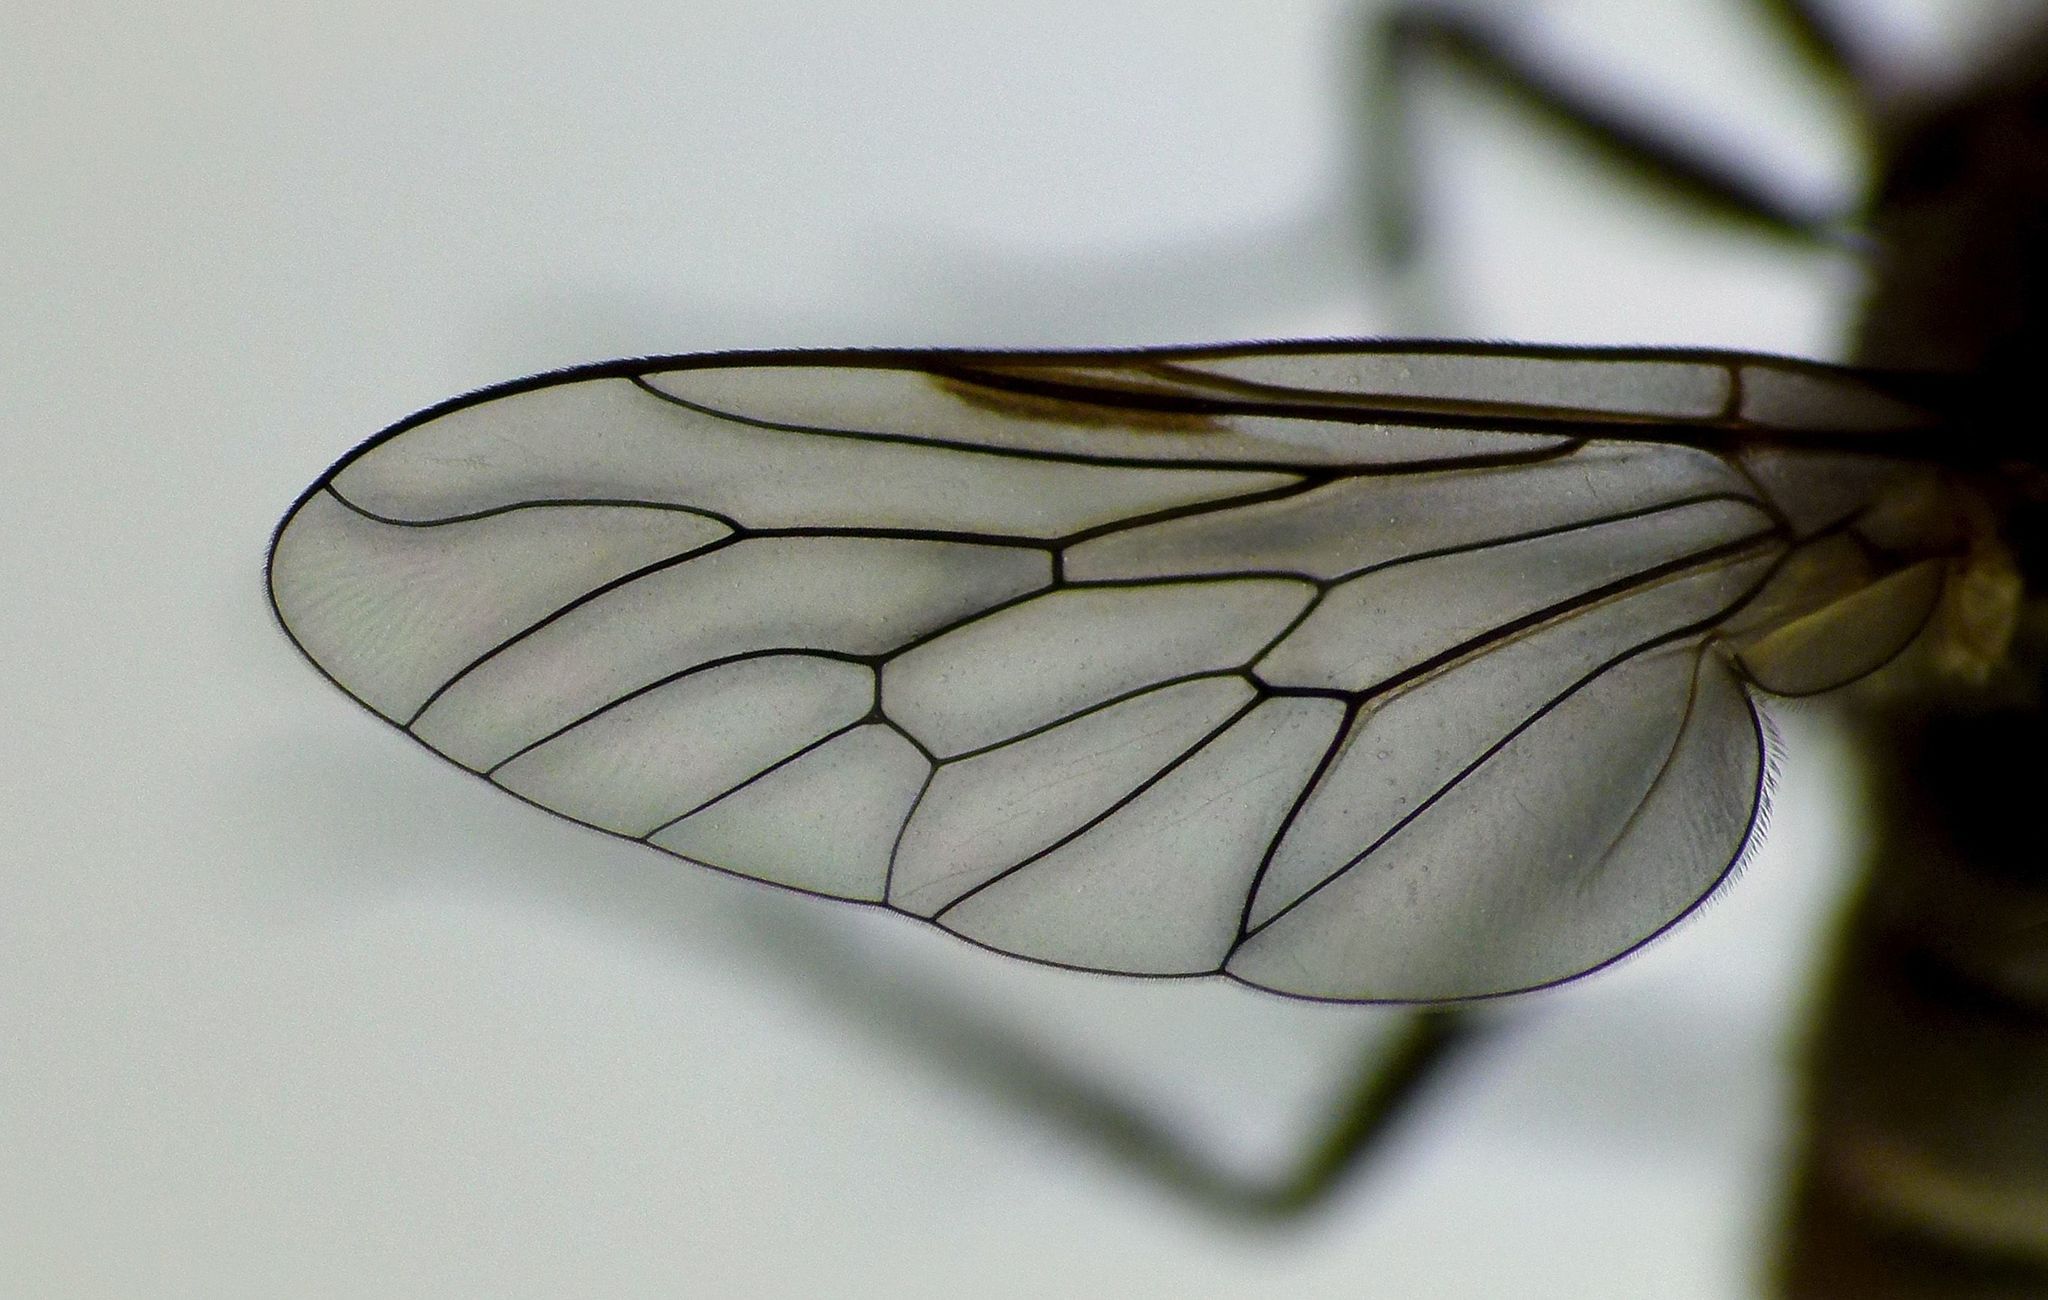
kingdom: Animalia
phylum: Arthropoda
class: Insecta
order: Diptera
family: Therevidae
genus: Anabarhynchus
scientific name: Anabarhynchus arenarius
